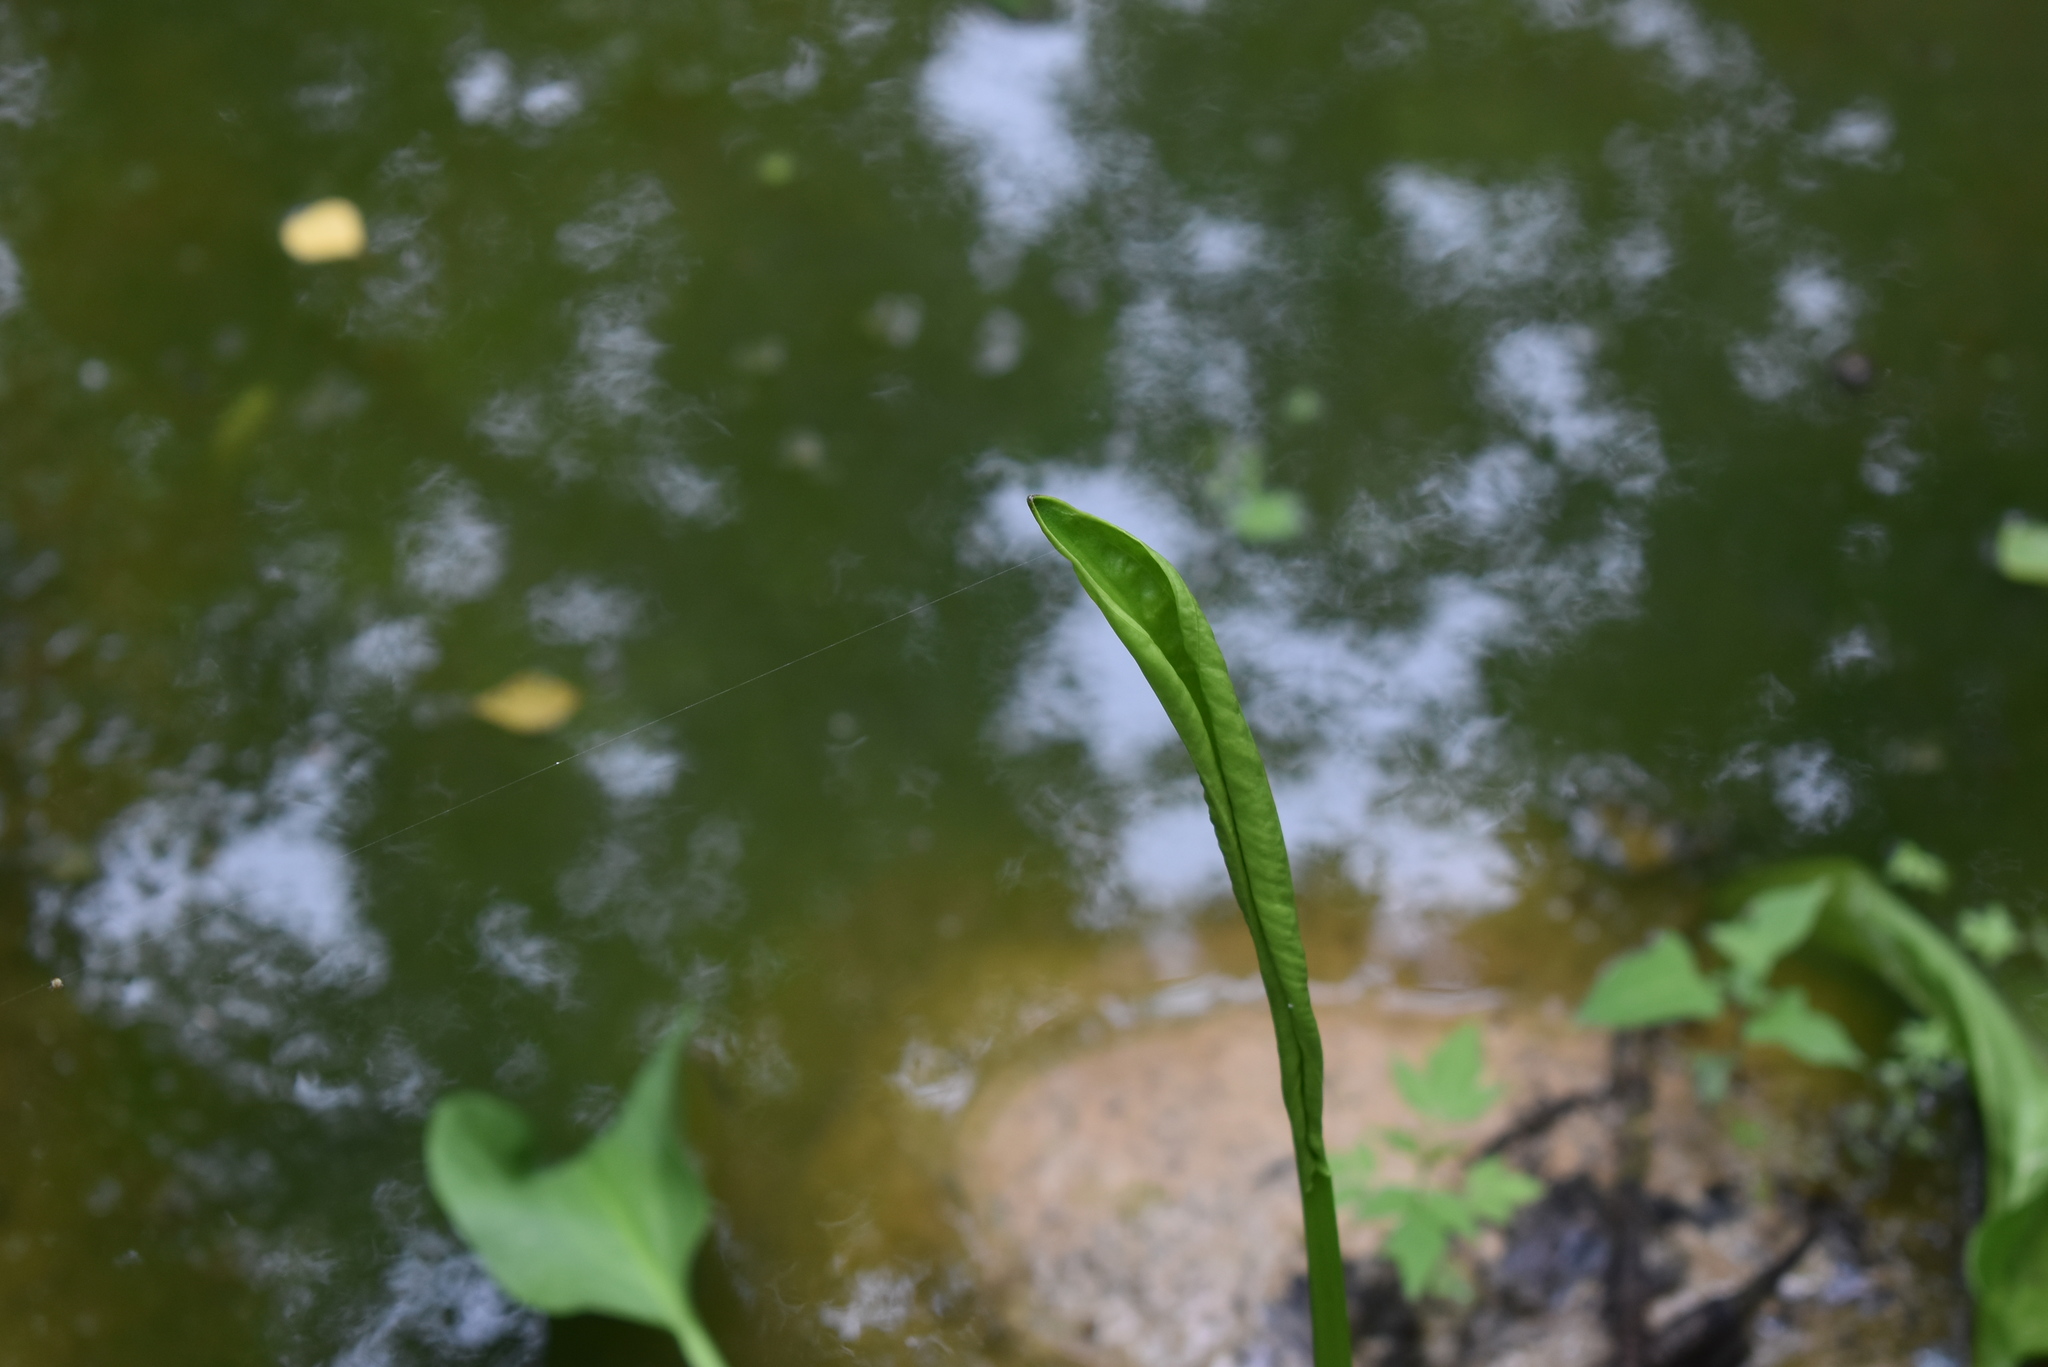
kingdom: Plantae
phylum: Tracheophyta
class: Liliopsida
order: Alismatales
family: Alismataceae
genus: Alisma
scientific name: Alisma plantago-aquatica
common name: Water-plantain
